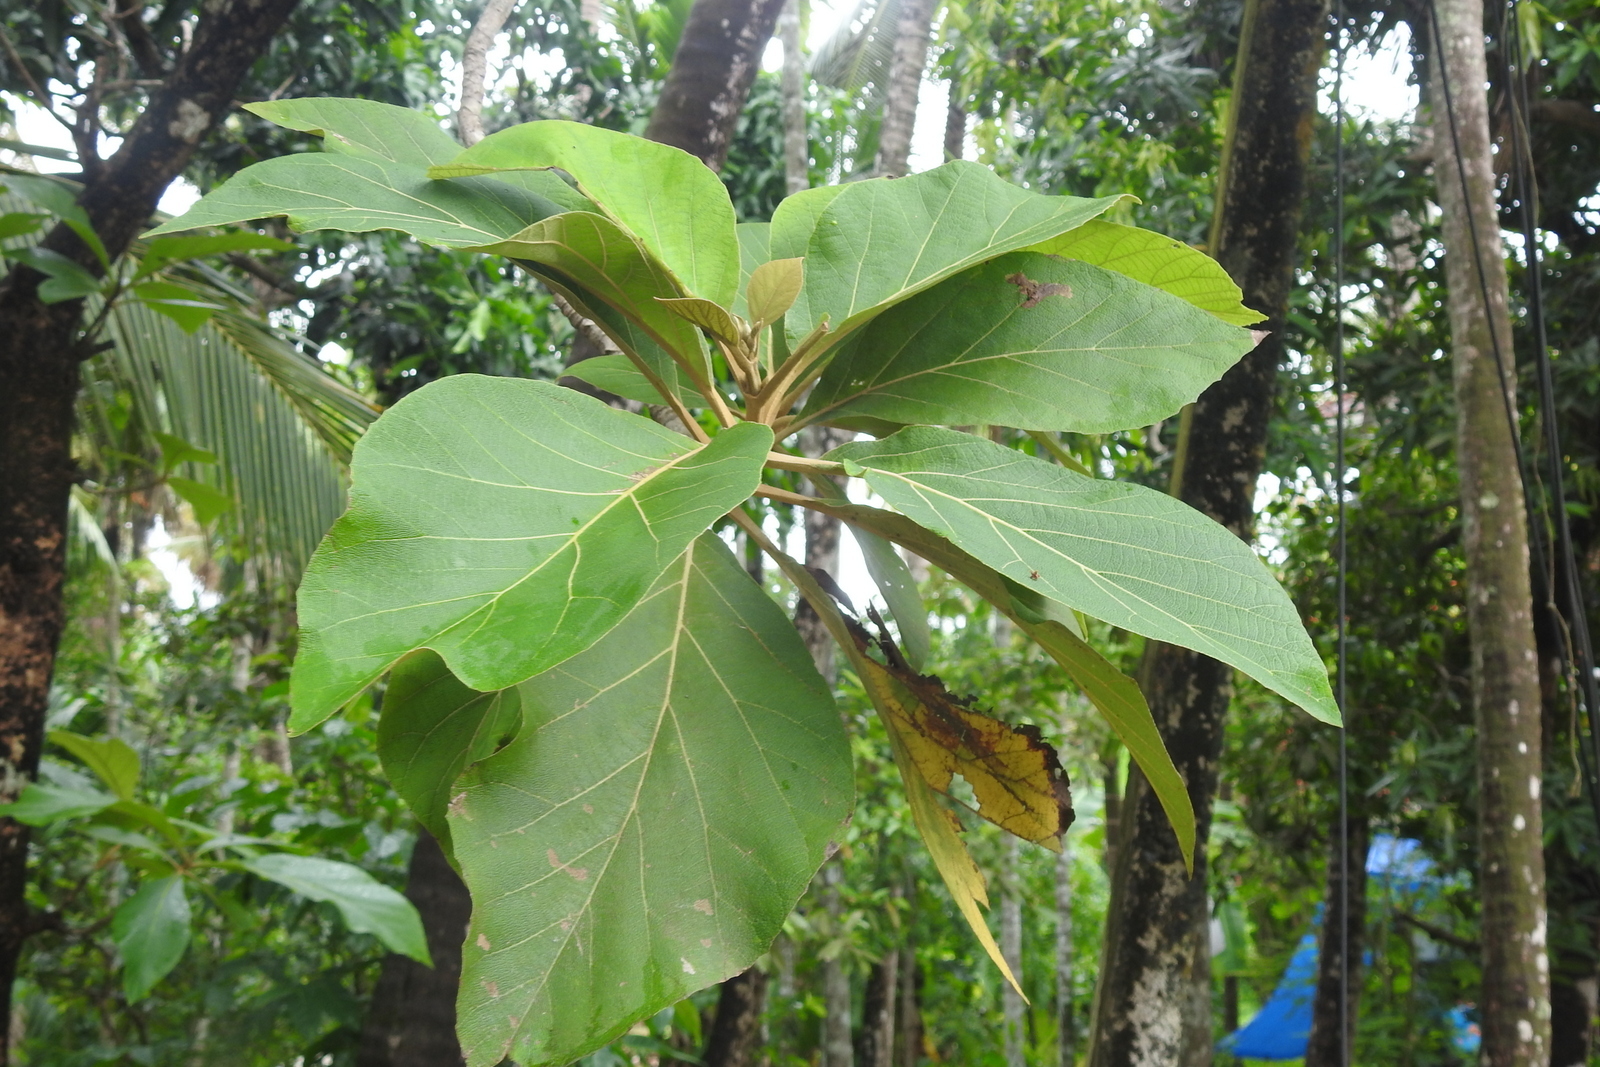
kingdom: Plantae
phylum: Tracheophyta
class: Magnoliopsida
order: Lamiales
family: Lamiaceae
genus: Tectona
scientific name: Tectona grandis
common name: Teak
